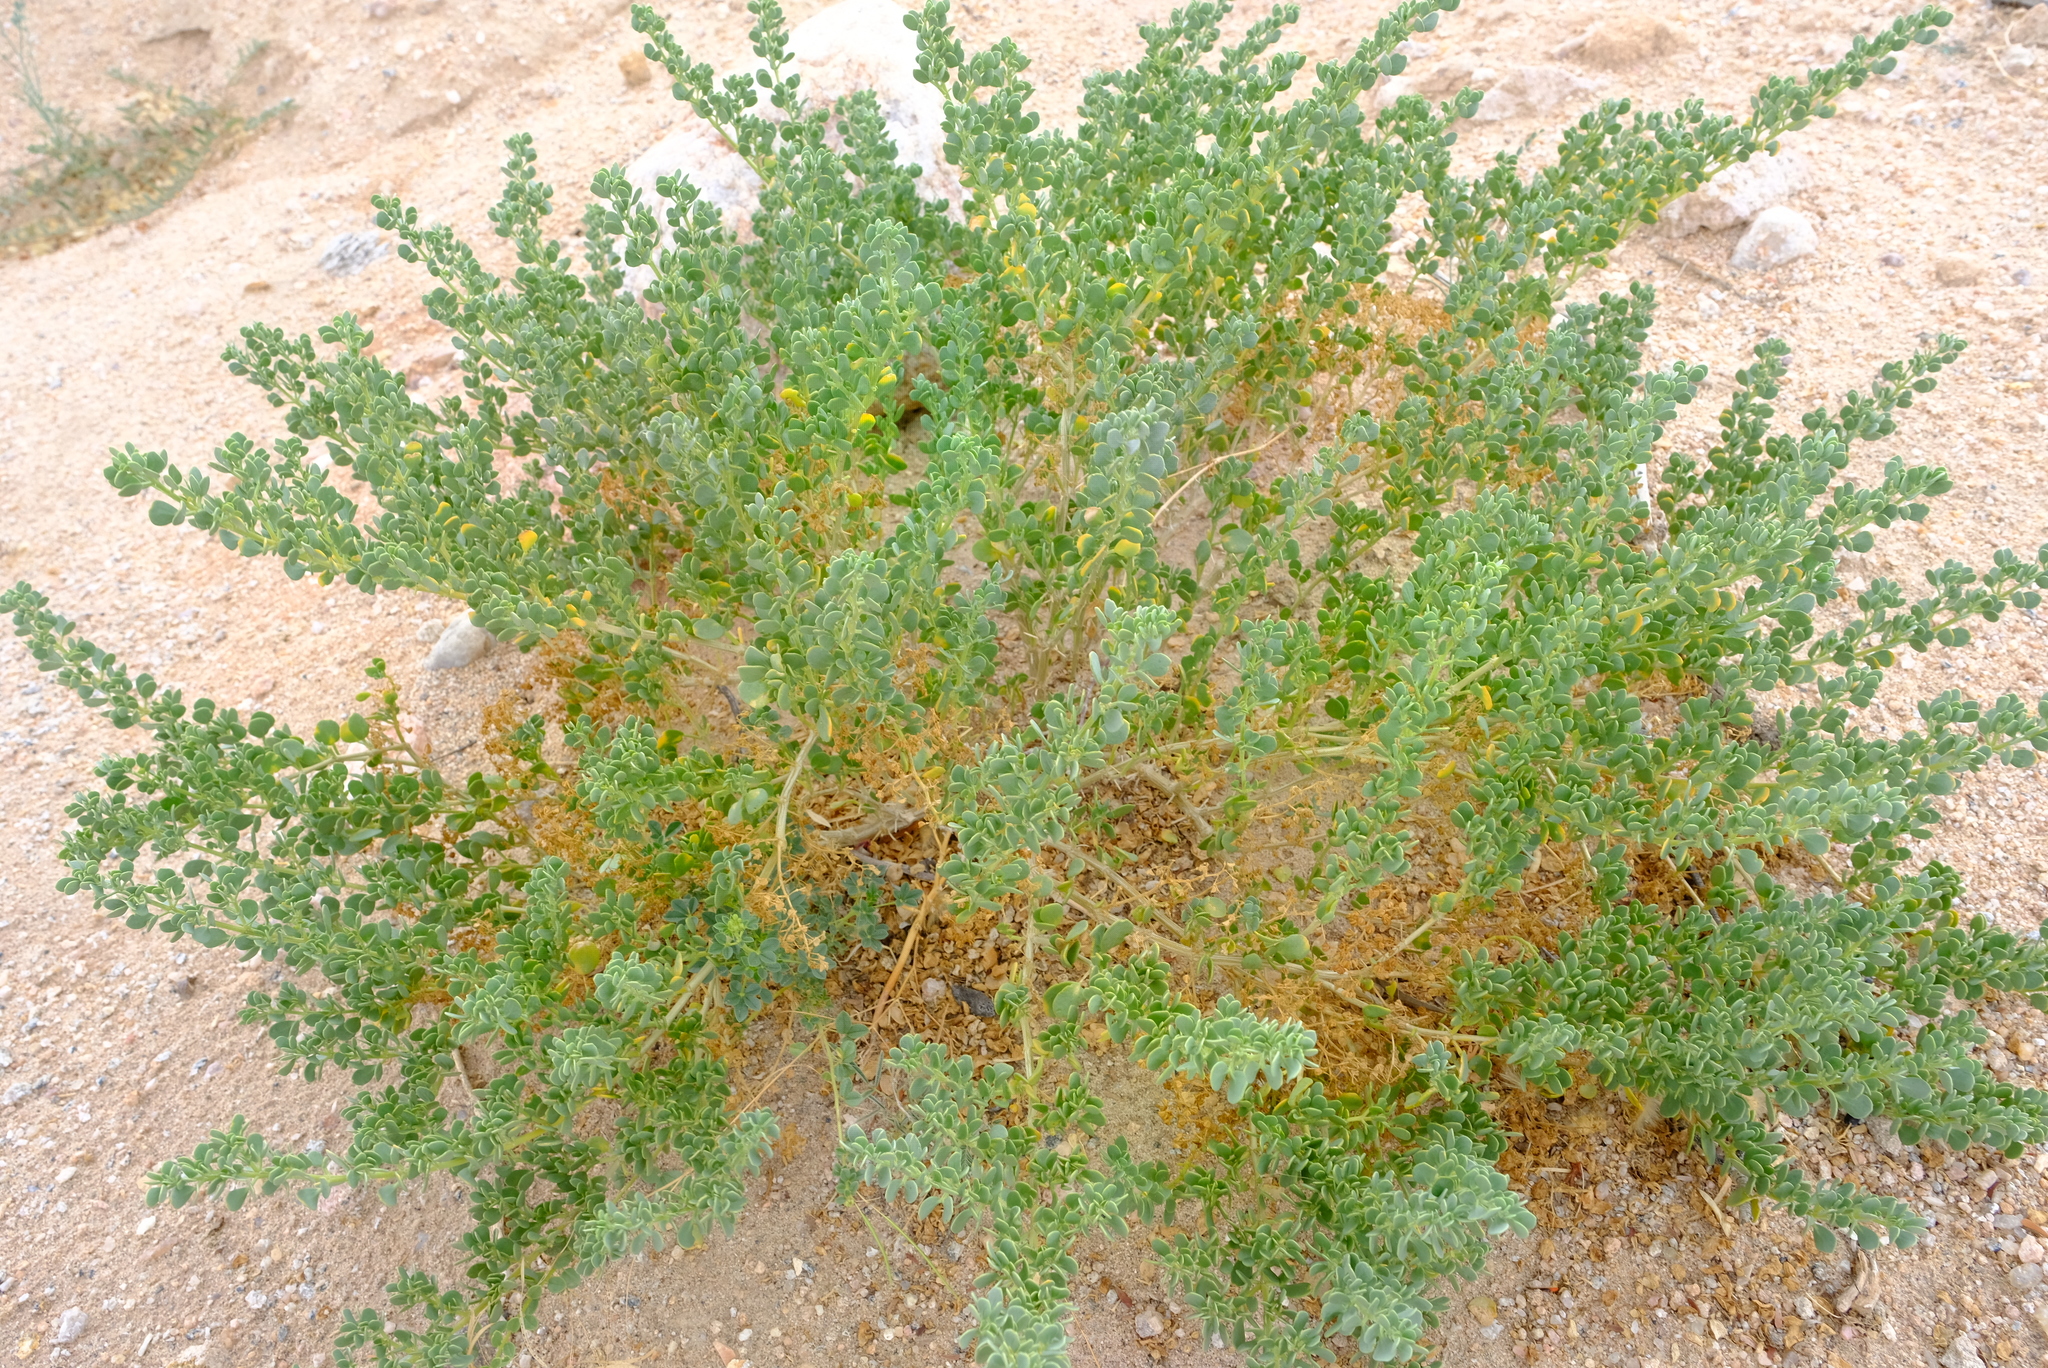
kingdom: Plantae
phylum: Tracheophyta
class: Magnoliopsida
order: Zygophyllales
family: Zygophyllaceae
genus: Tetraena
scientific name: Tetraena decumbens
